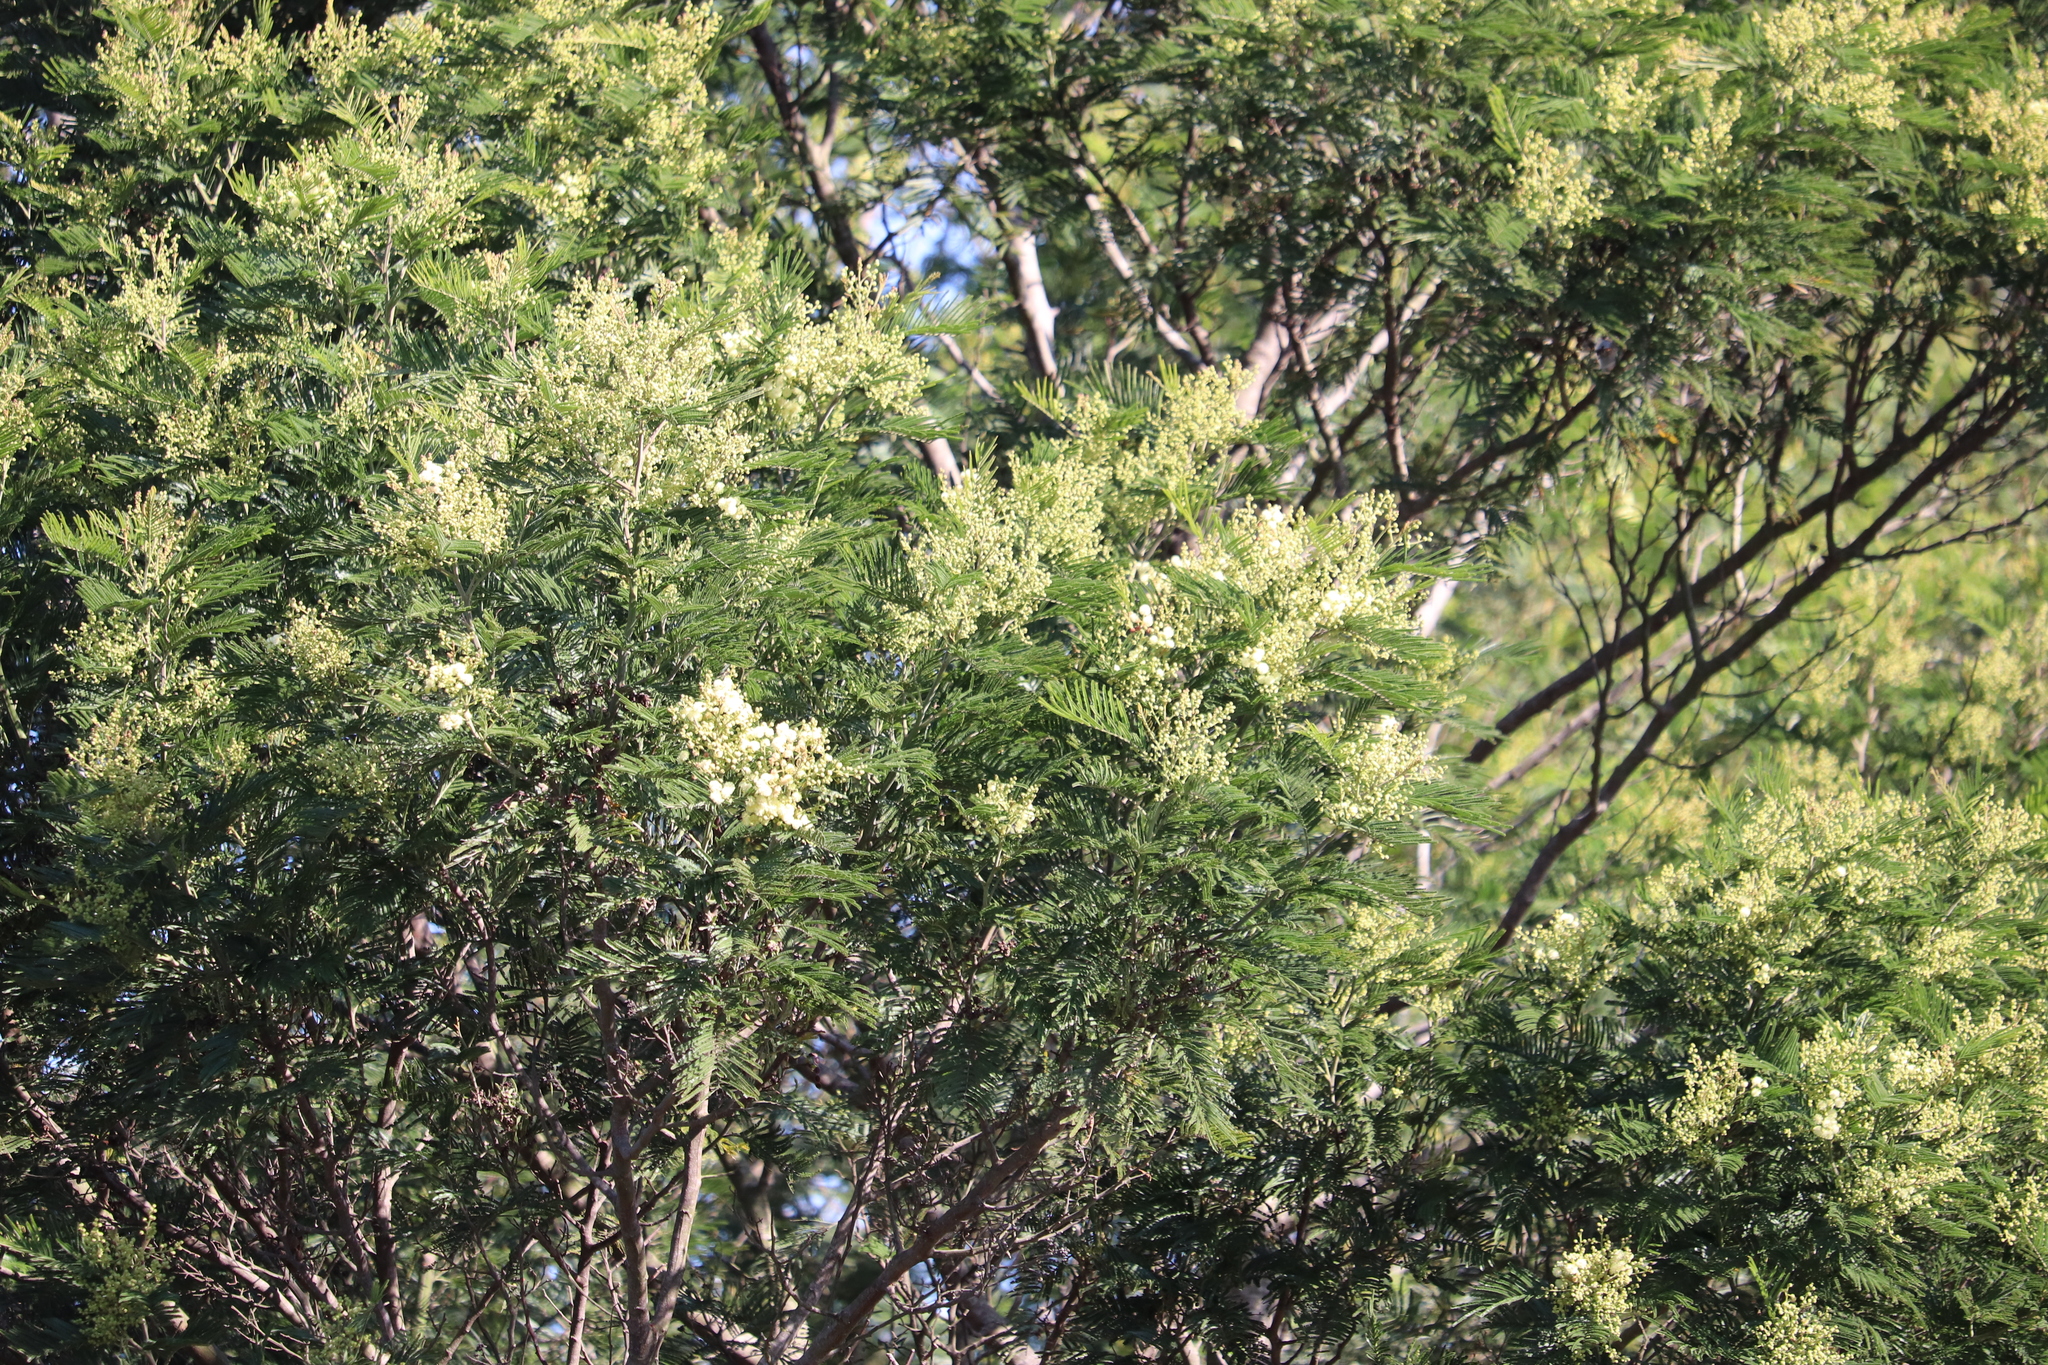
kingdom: Plantae
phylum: Tracheophyta
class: Magnoliopsida
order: Fabales
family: Fabaceae
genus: Acacia
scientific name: Acacia mearnsii
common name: Black wattle
